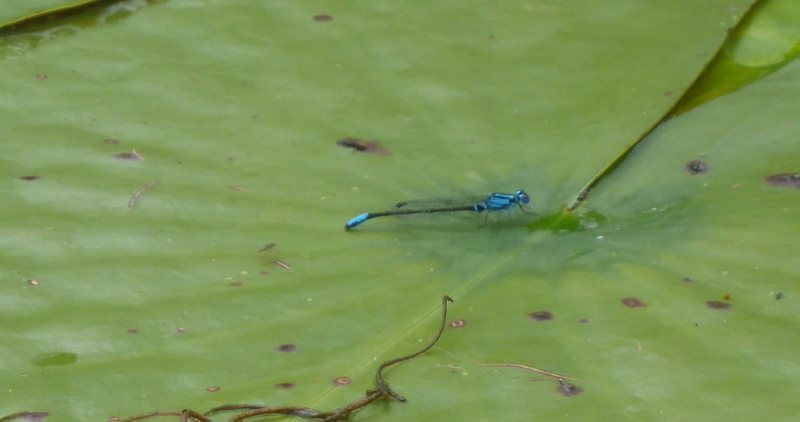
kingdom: Animalia
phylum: Arthropoda
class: Insecta
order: Odonata
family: Coenagrionidae
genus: Ischnura
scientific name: Ischnura kellicotti
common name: Lilypad forktail
